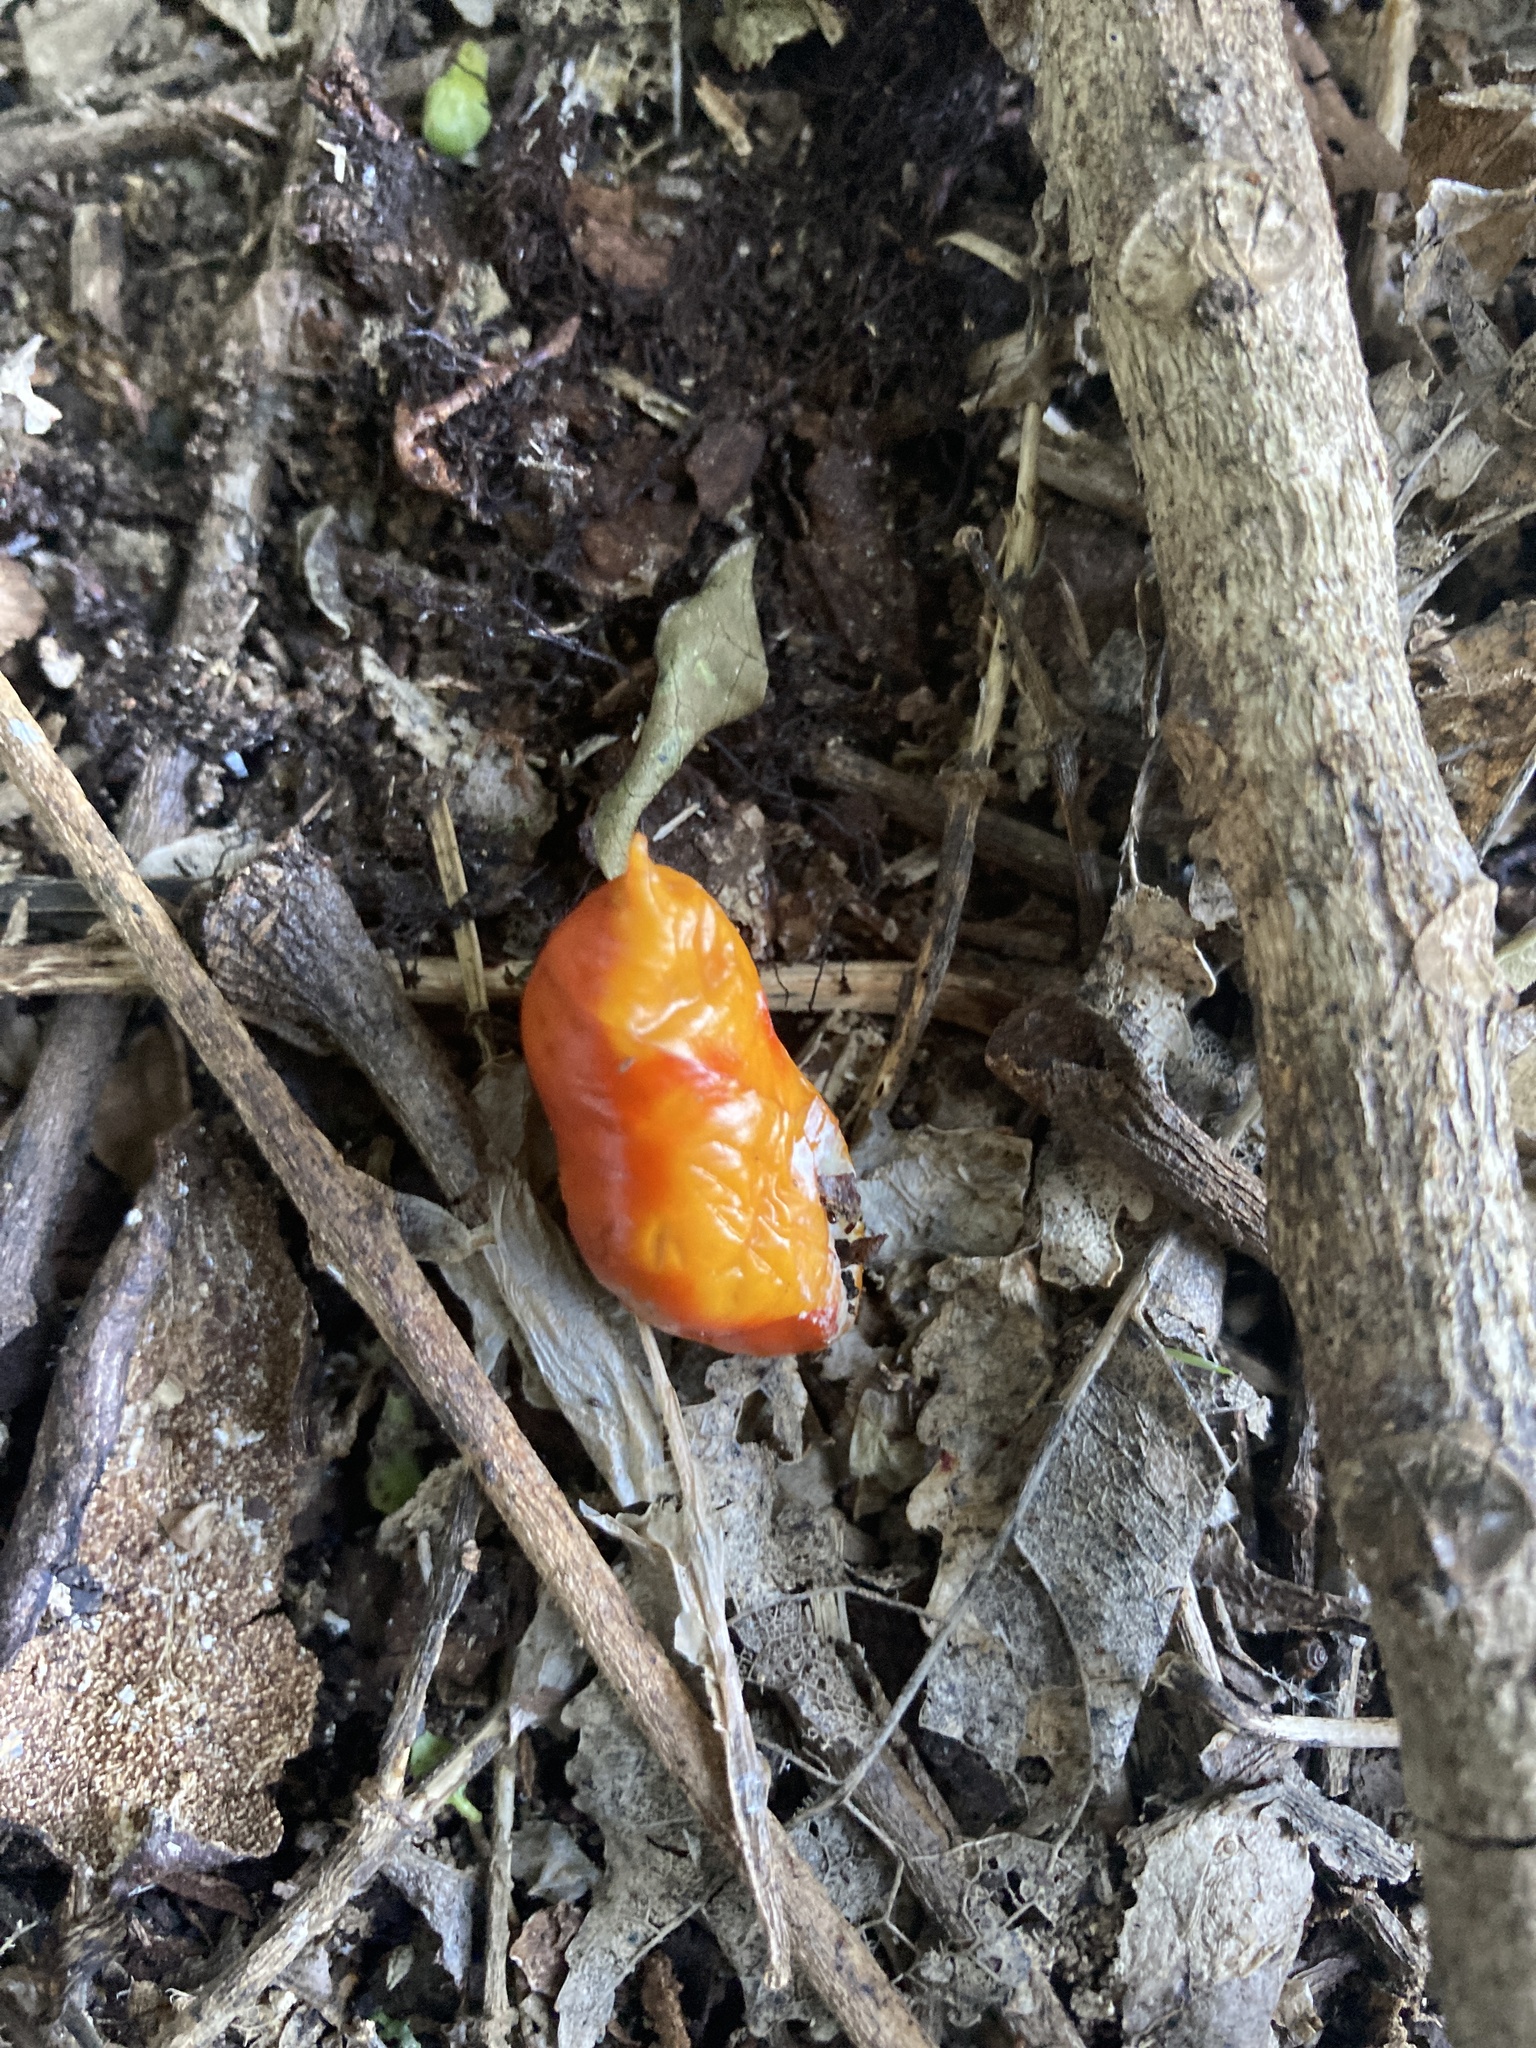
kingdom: Plantae
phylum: Tracheophyta
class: Magnoliopsida
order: Sapindales
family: Meliaceae
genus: Didymocheton
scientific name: Didymocheton spectabilis
